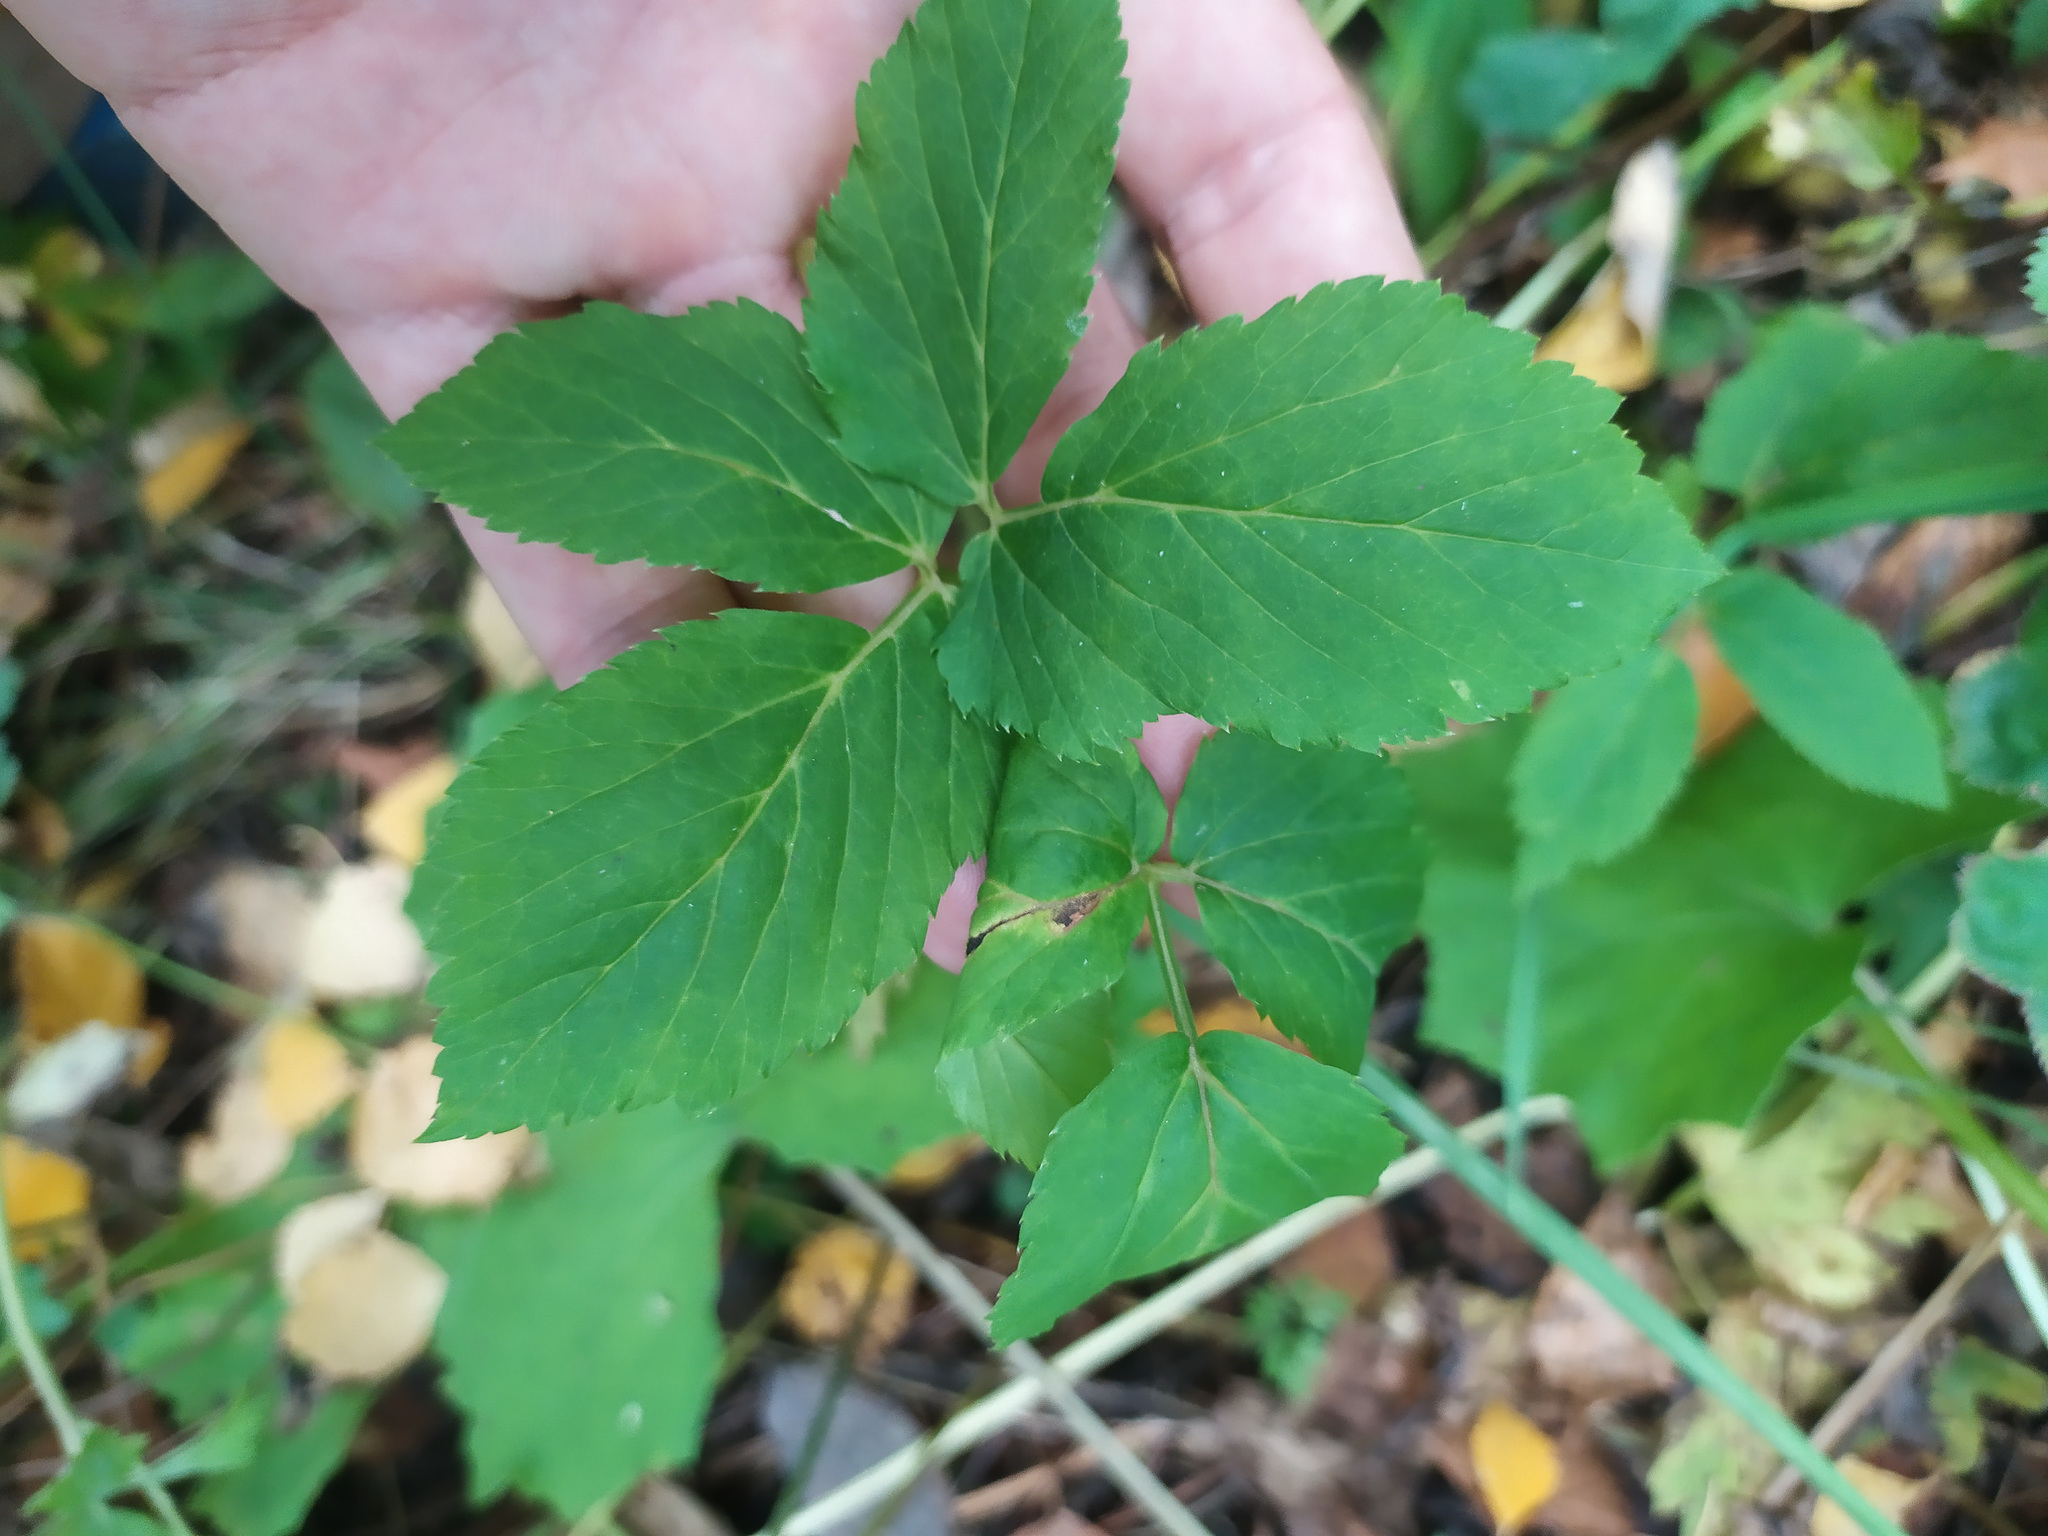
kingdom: Plantae
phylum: Tracheophyta
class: Magnoliopsida
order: Apiales
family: Apiaceae
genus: Aegopodium
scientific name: Aegopodium podagraria
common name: Ground-elder
